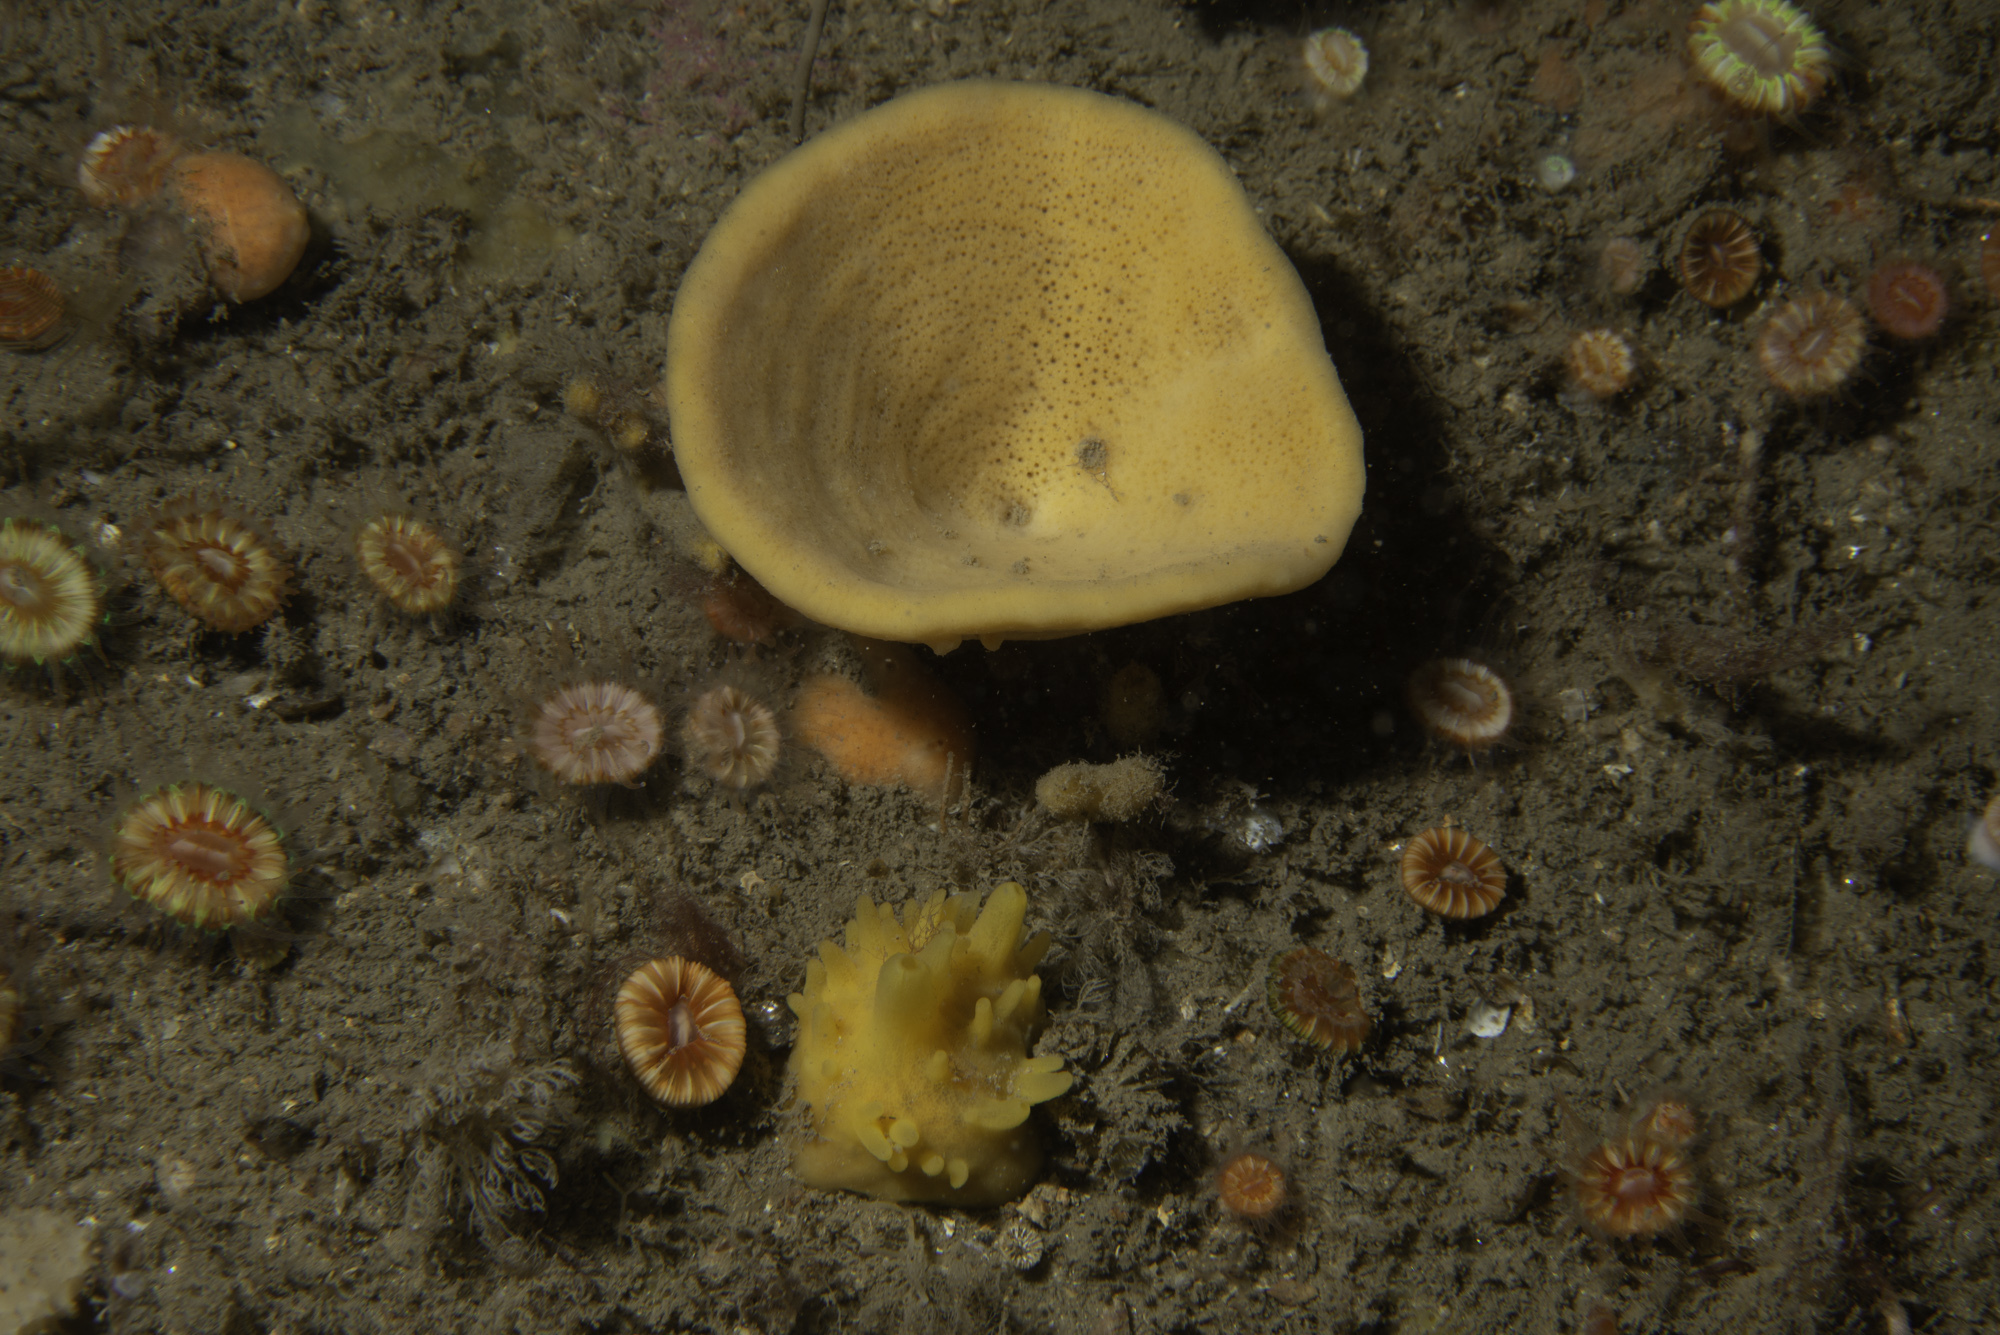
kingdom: Animalia
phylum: Porifera
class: Demospongiae
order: Axinellida
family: Axinellidae
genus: Axinella
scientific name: Axinella infundibuliformis
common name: North atlantic cup sponge
